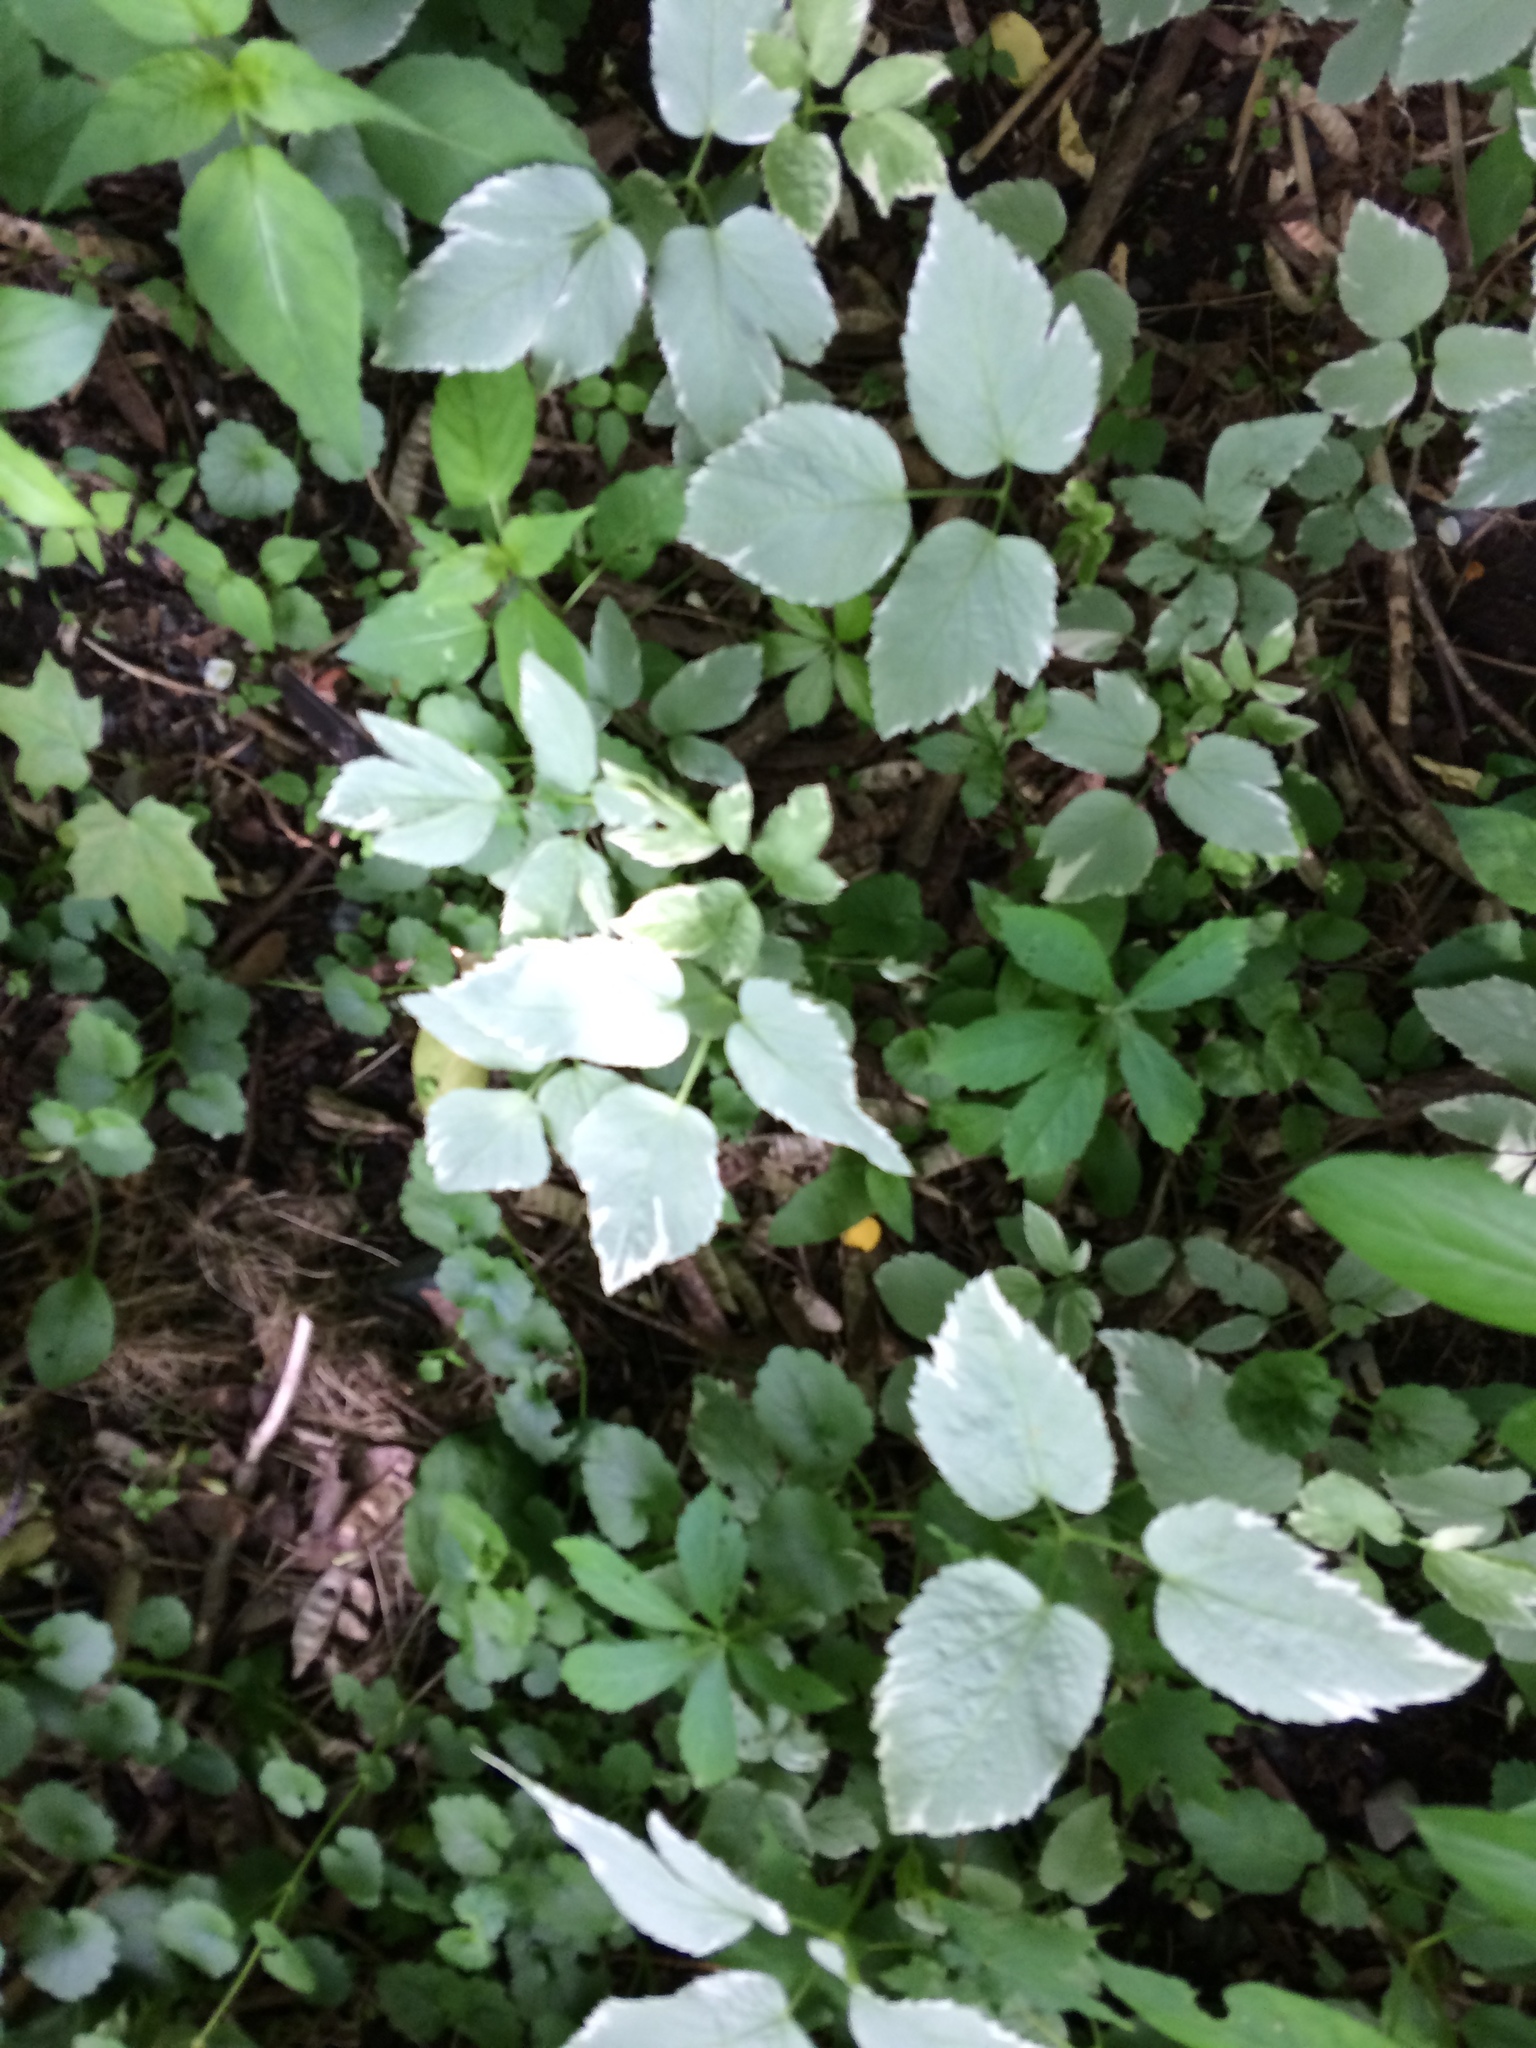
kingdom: Plantae
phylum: Tracheophyta
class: Magnoliopsida
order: Apiales
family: Apiaceae
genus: Aegopodium
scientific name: Aegopodium podagraria
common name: Ground-elder
